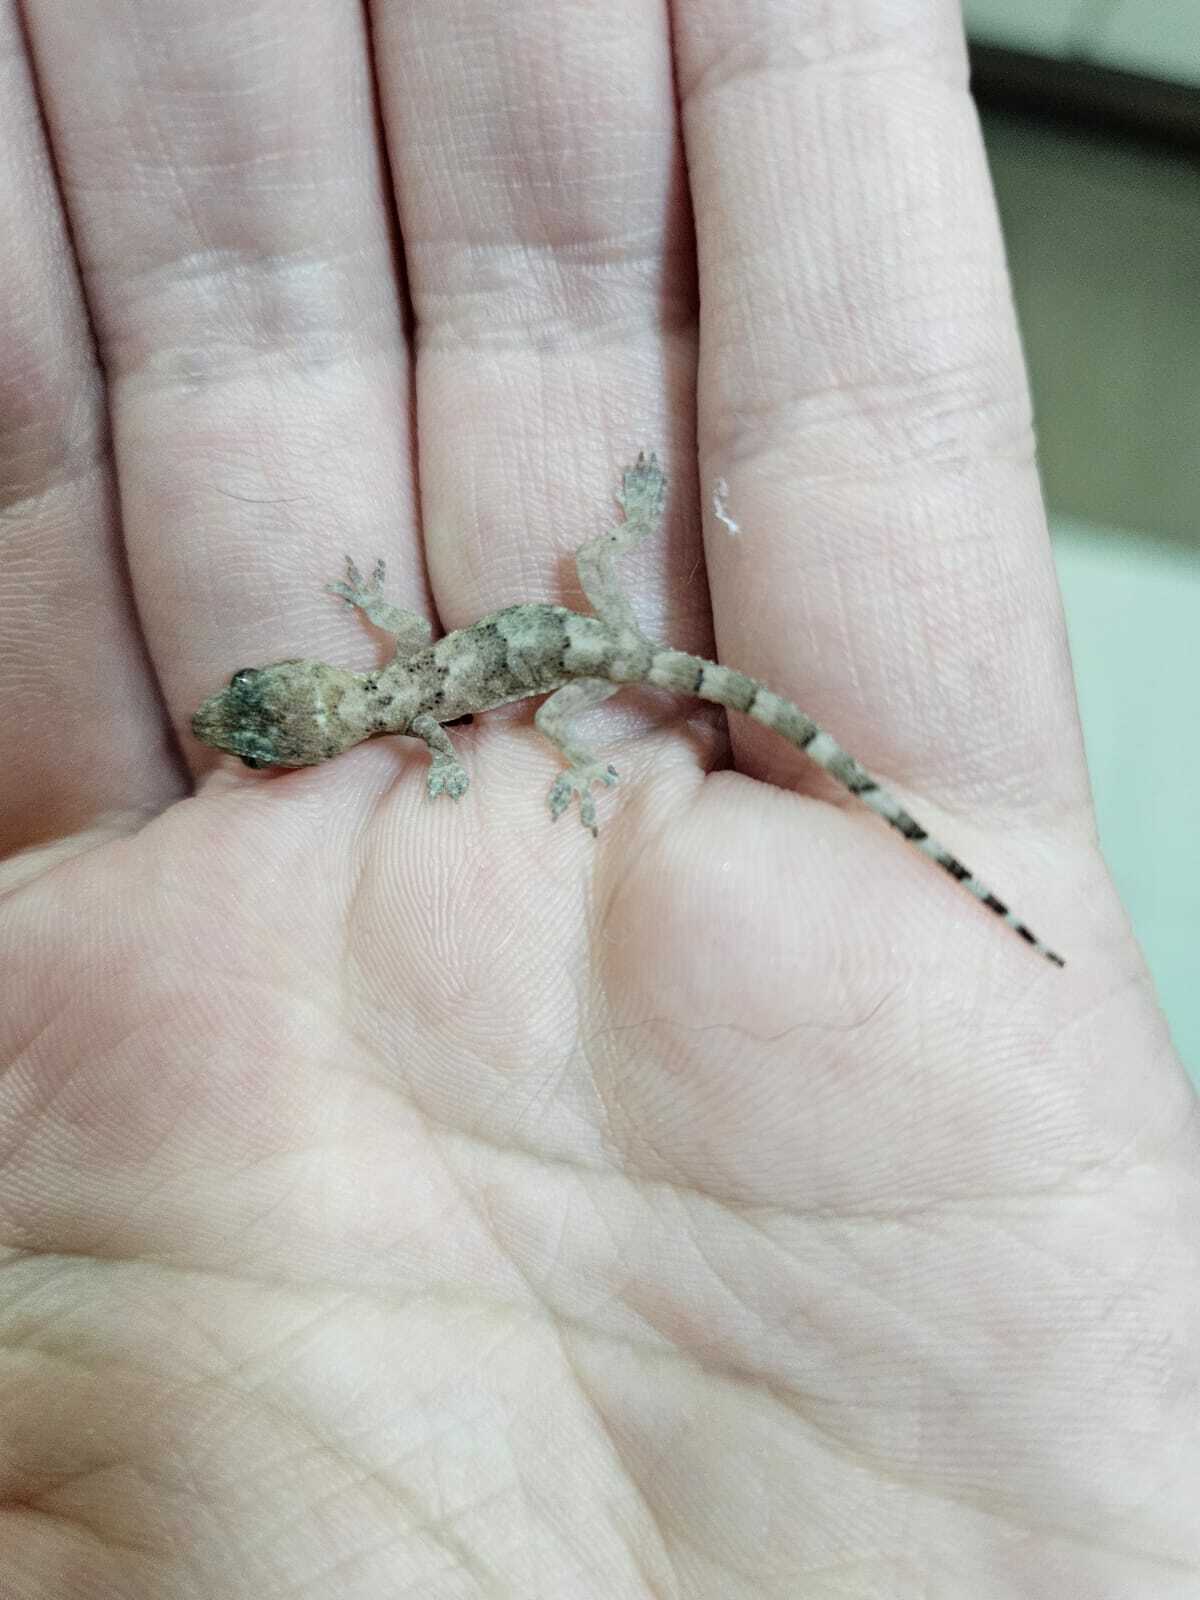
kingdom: Animalia
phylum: Chordata
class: Squamata
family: Gekkonidae
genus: Hemidactylus
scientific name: Hemidactylus mabouia
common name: House gecko
